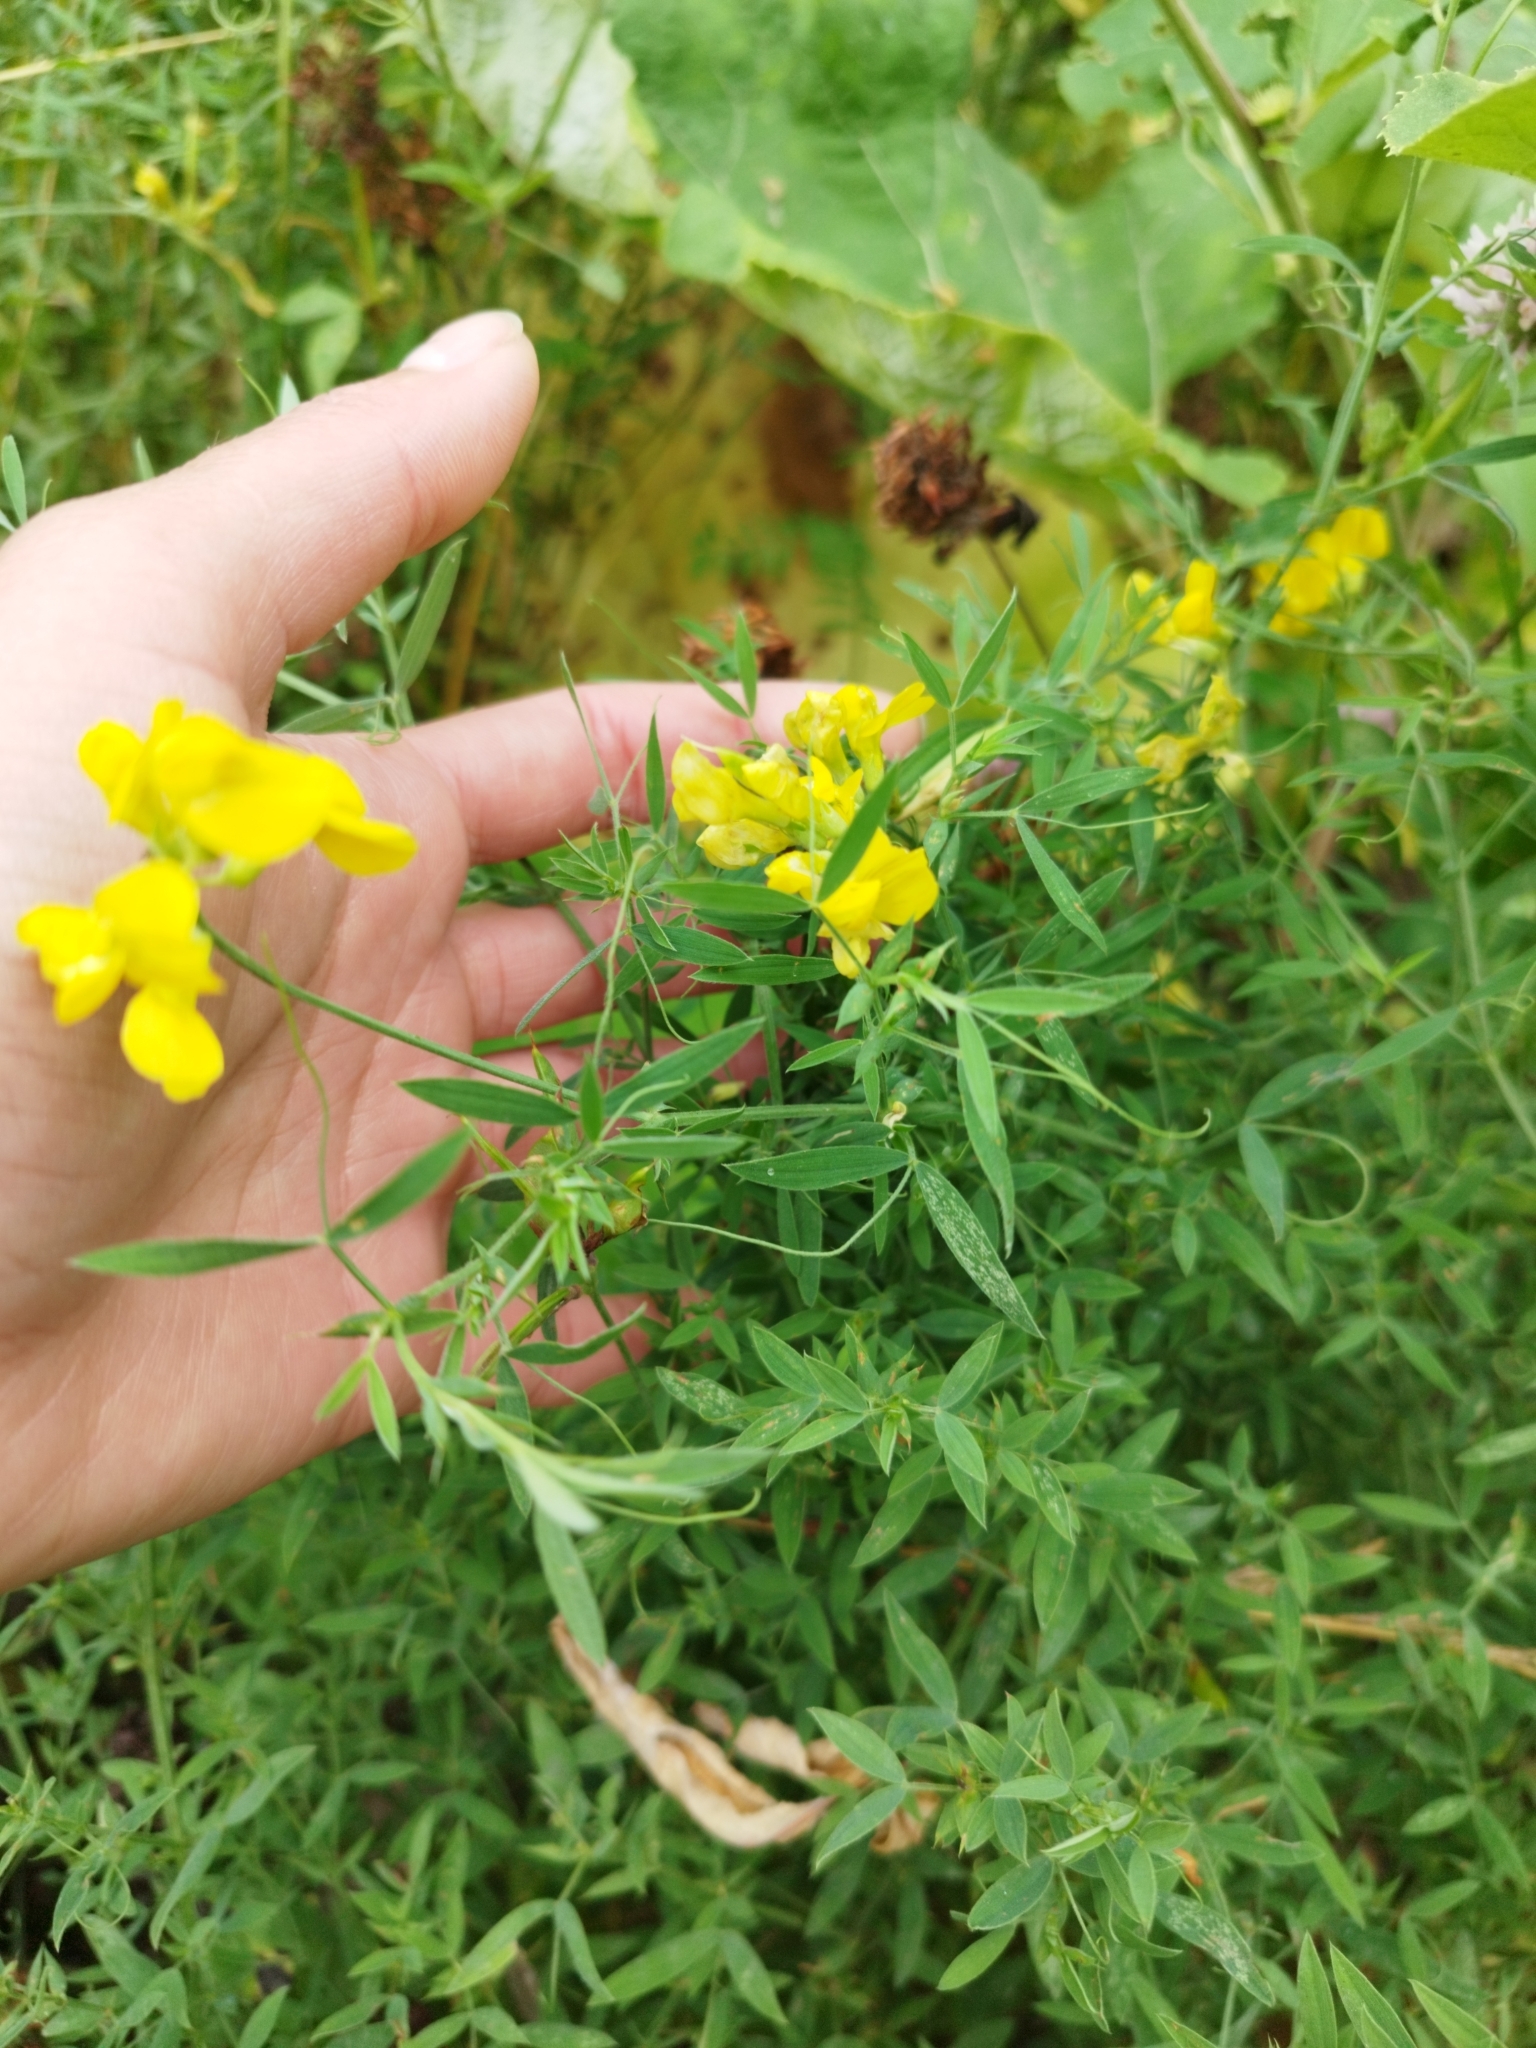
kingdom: Plantae
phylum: Tracheophyta
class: Magnoliopsida
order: Fabales
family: Fabaceae
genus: Lathyrus
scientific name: Lathyrus pratensis
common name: Meadow vetchling
